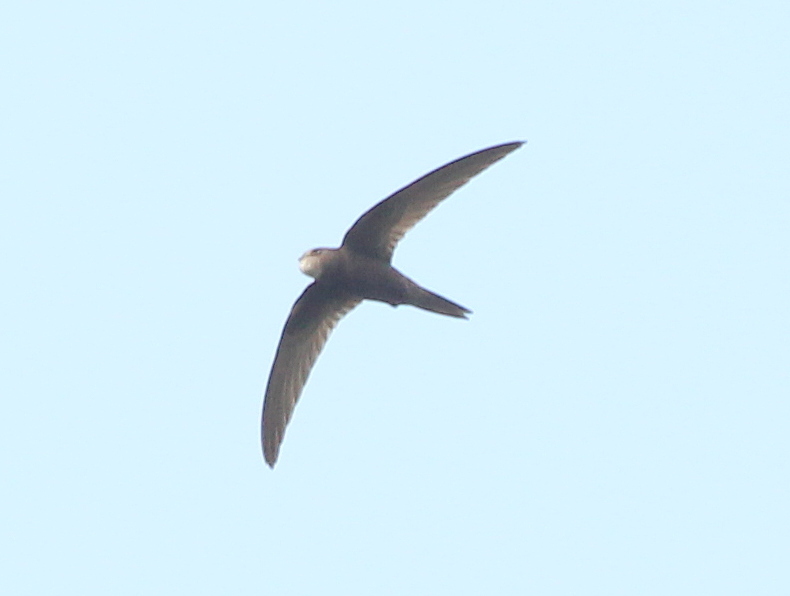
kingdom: Animalia
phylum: Chordata
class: Aves
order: Apodiformes
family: Apodidae
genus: Apus
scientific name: Apus apus
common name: Common swift
